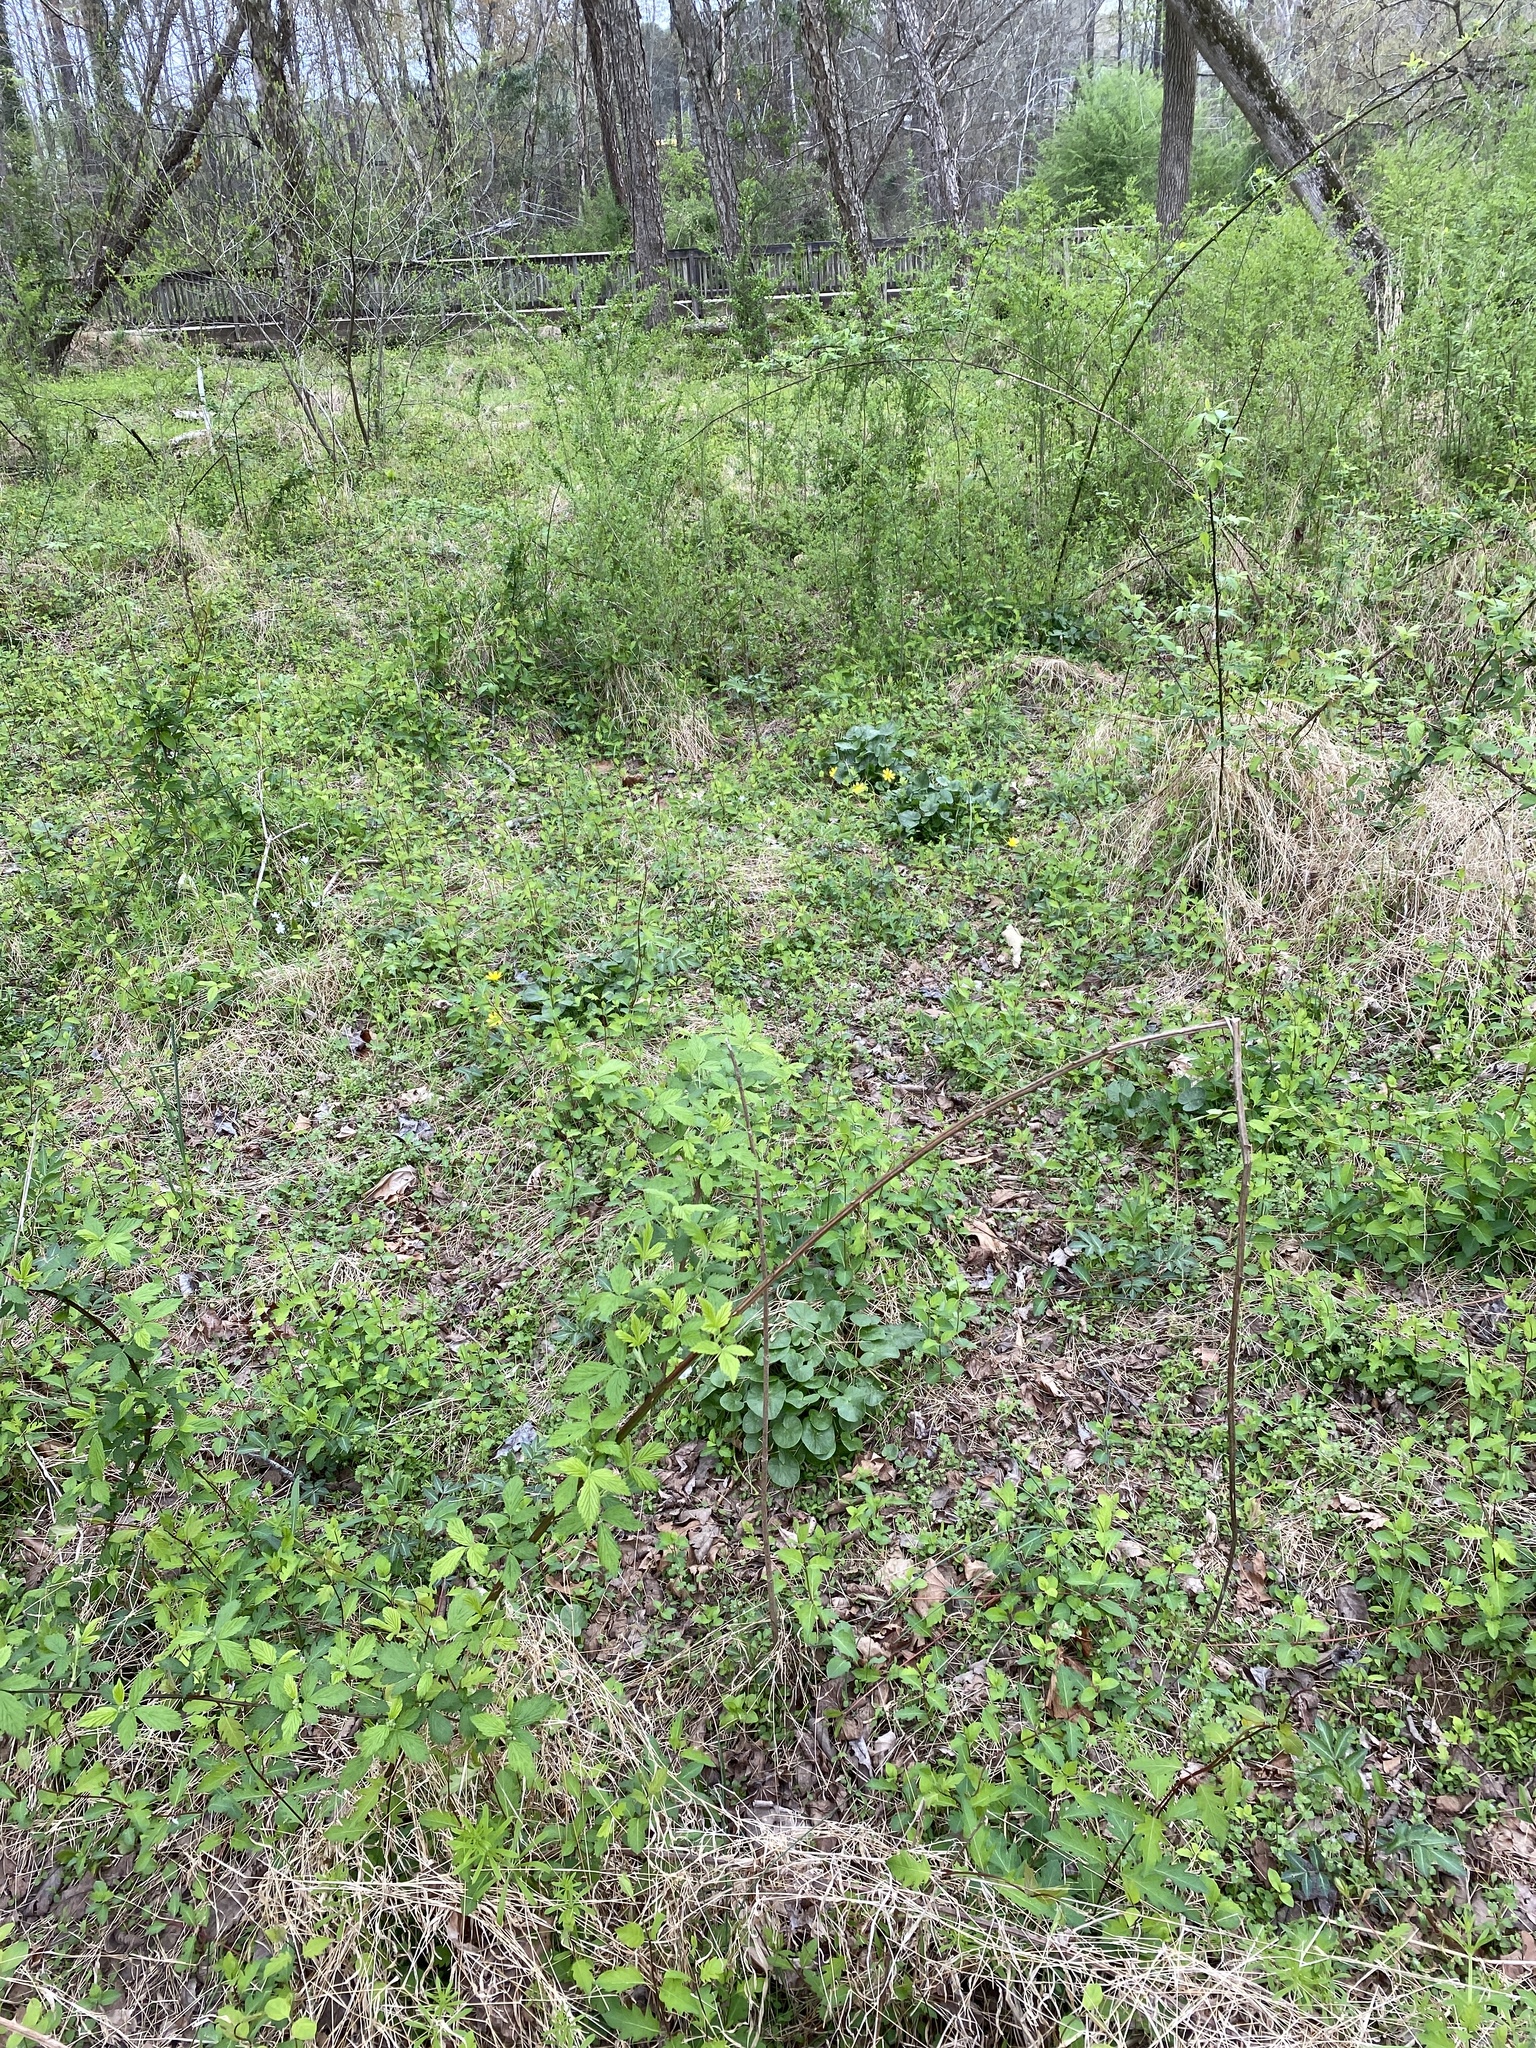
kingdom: Plantae
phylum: Tracheophyta
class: Magnoliopsida
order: Ranunculales
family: Ranunculaceae
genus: Ficaria
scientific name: Ficaria verna
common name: Lesser celandine
